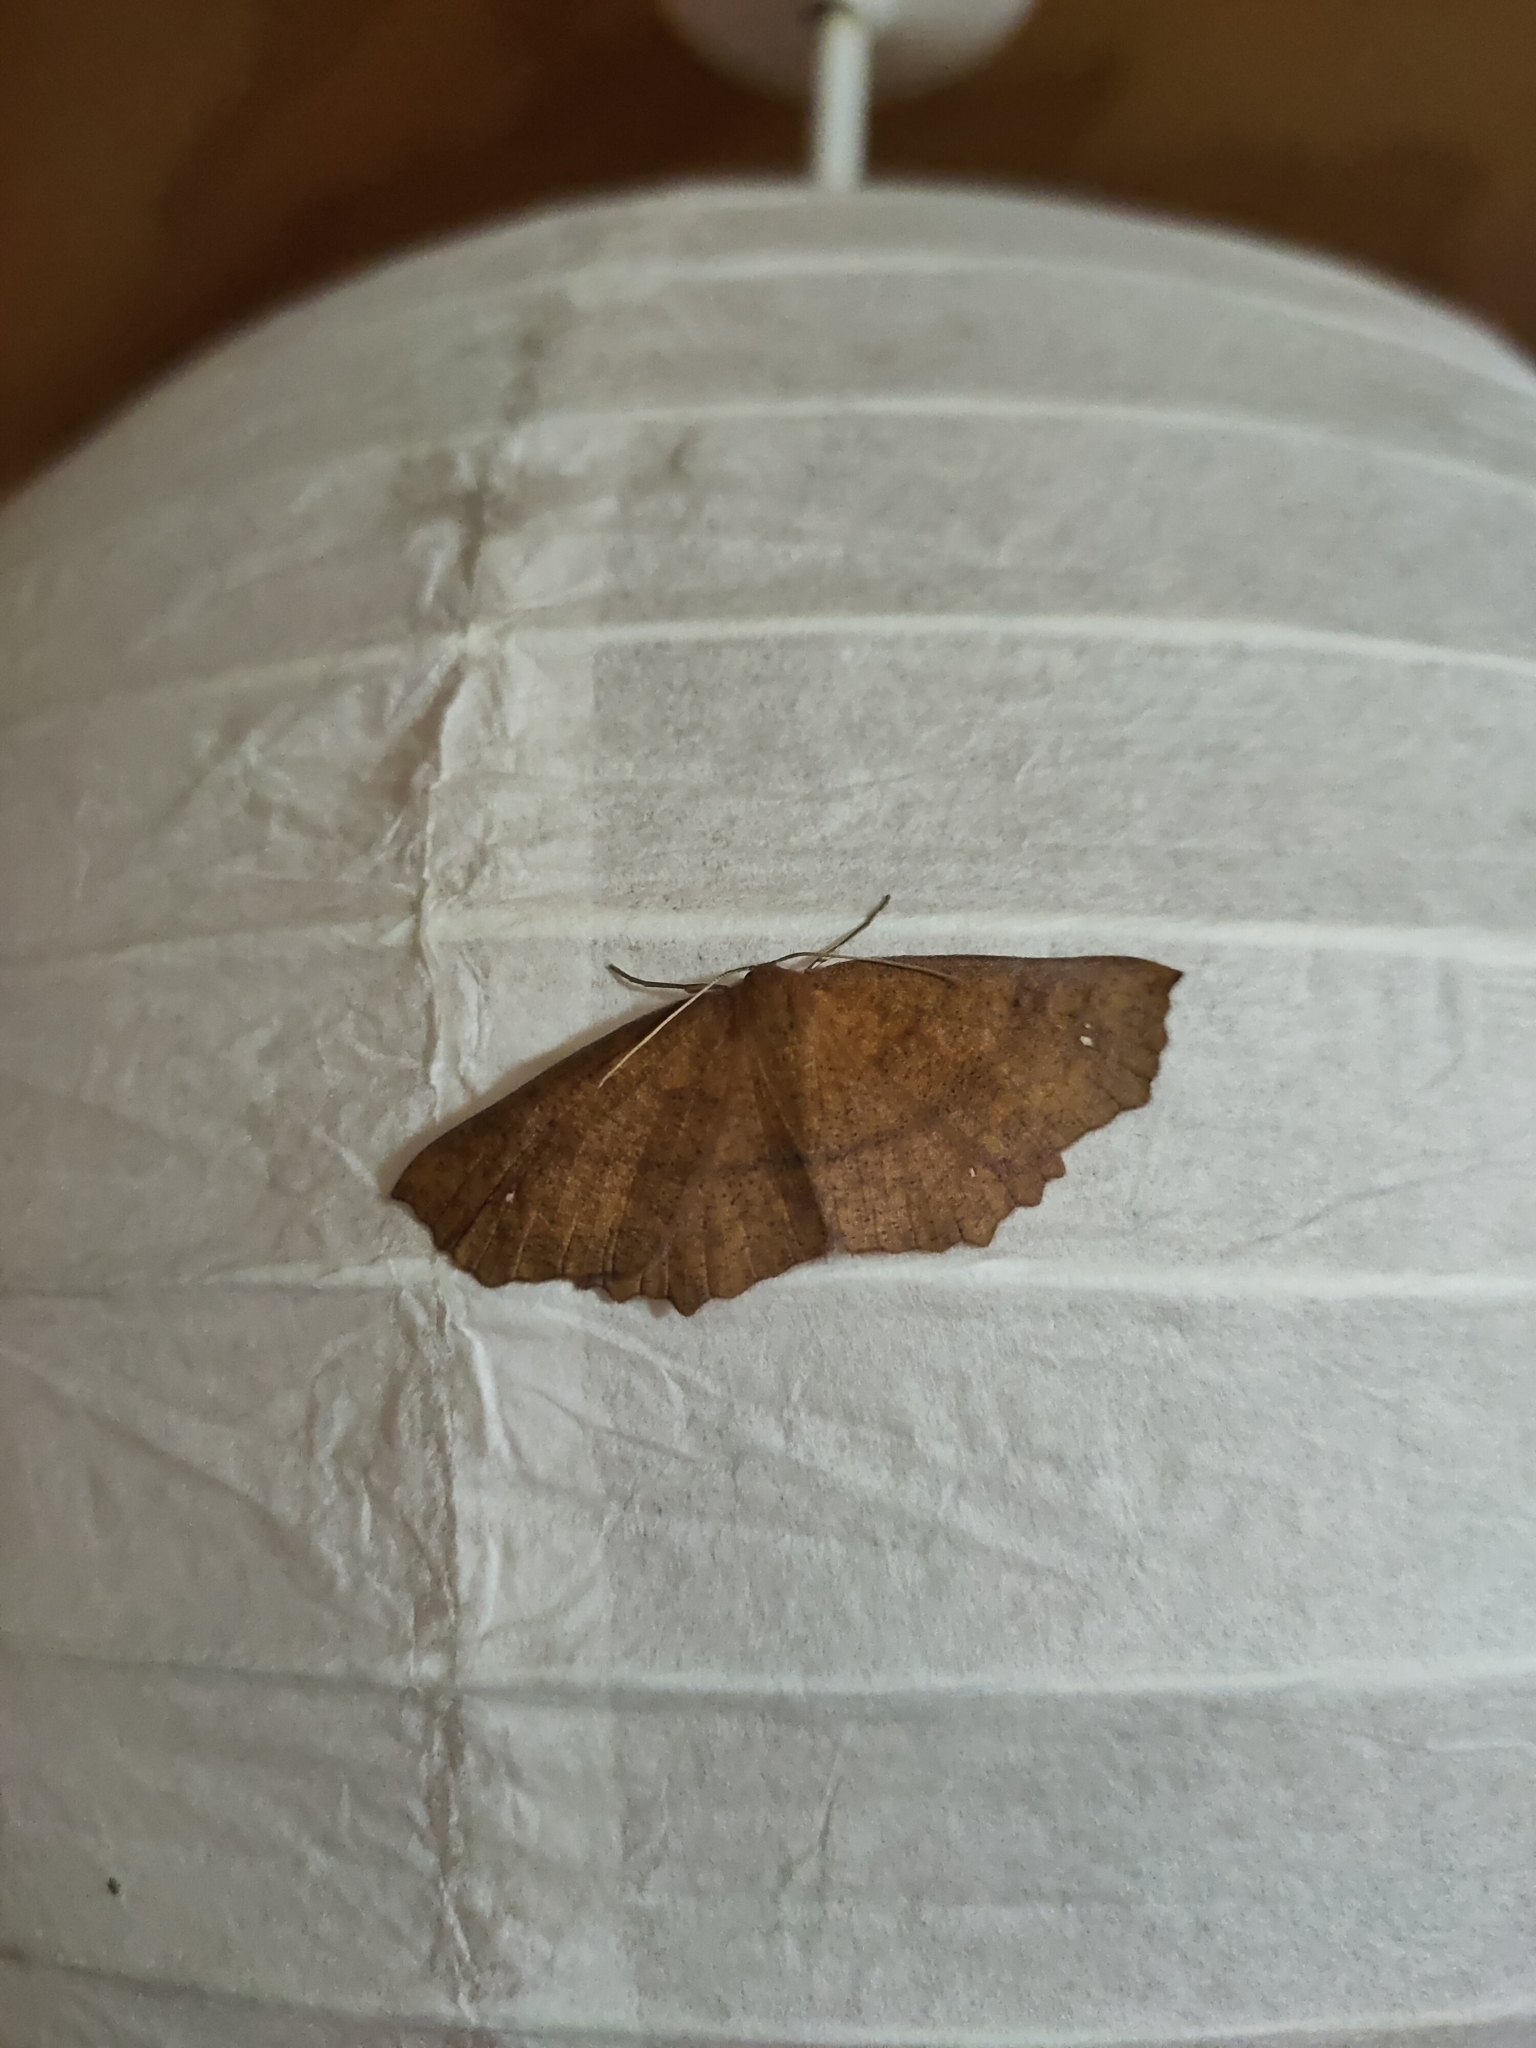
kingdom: Animalia
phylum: Arthropoda
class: Insecta
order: Lepidoptera
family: Geometridae
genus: Xyridacma
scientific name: Xyridacma ustaria
